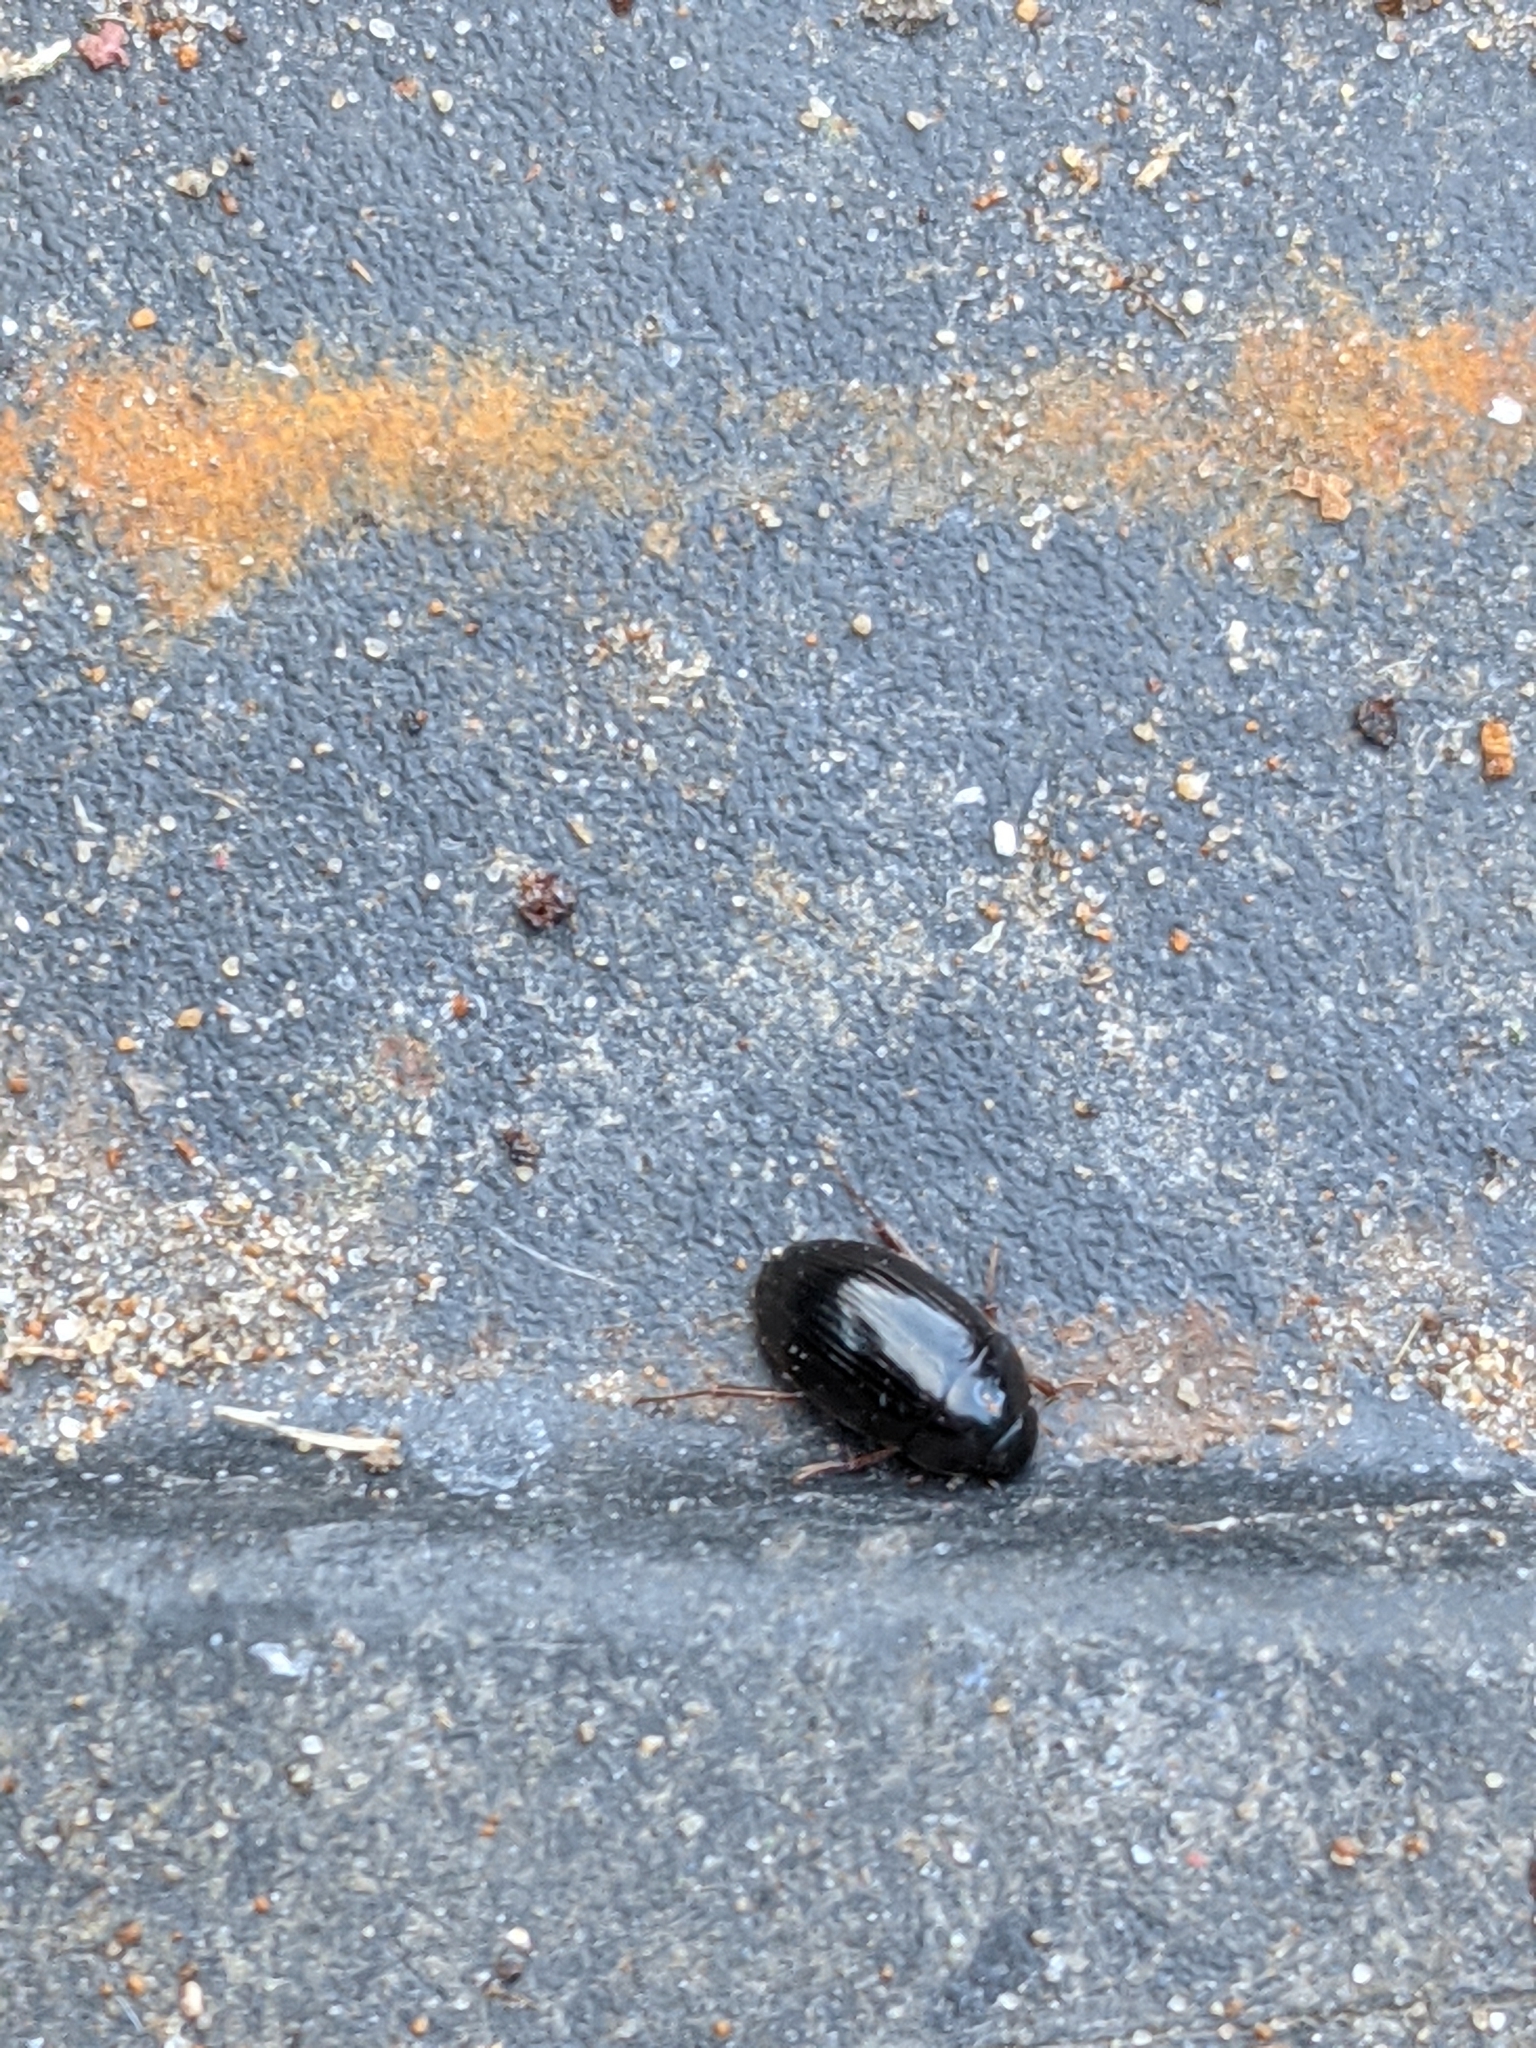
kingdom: Animalia
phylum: Arthropoda
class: Insecta
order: Coleoptera
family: Hydrophilidae
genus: Cymbiodyta
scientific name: Cymbiodyta bifida
